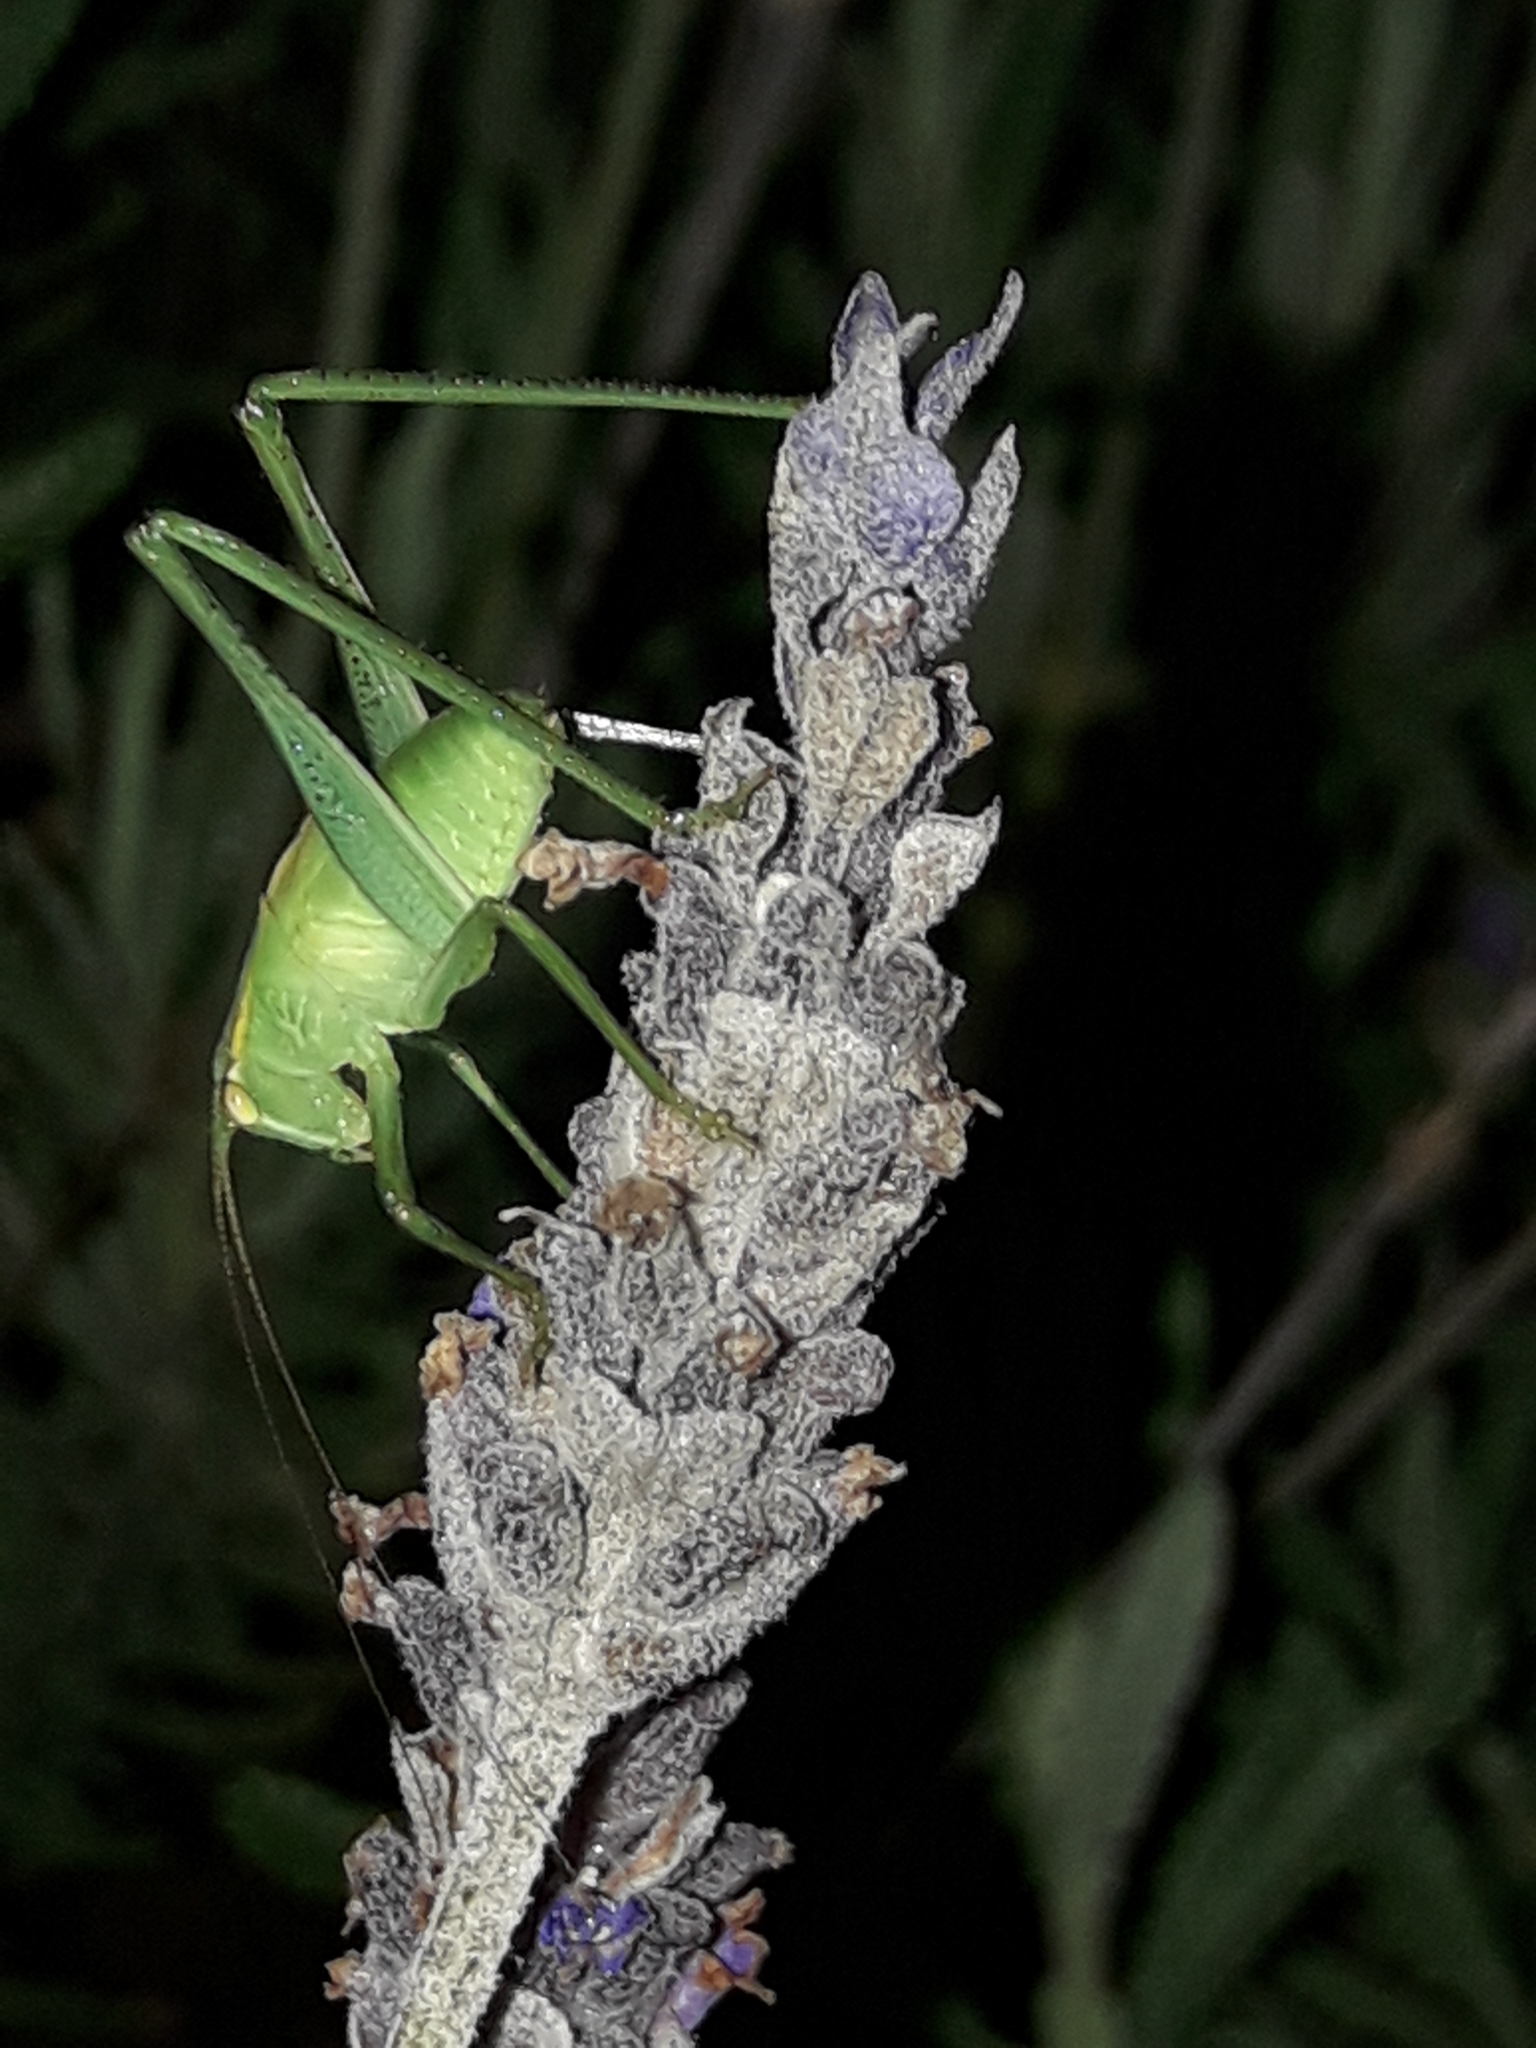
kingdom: Animalia
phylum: Arthropoda
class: Insecta
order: Orthoptera
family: Tettigoniidae
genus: Caedicia
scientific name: Caedicia simplex
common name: Common garden katydid
